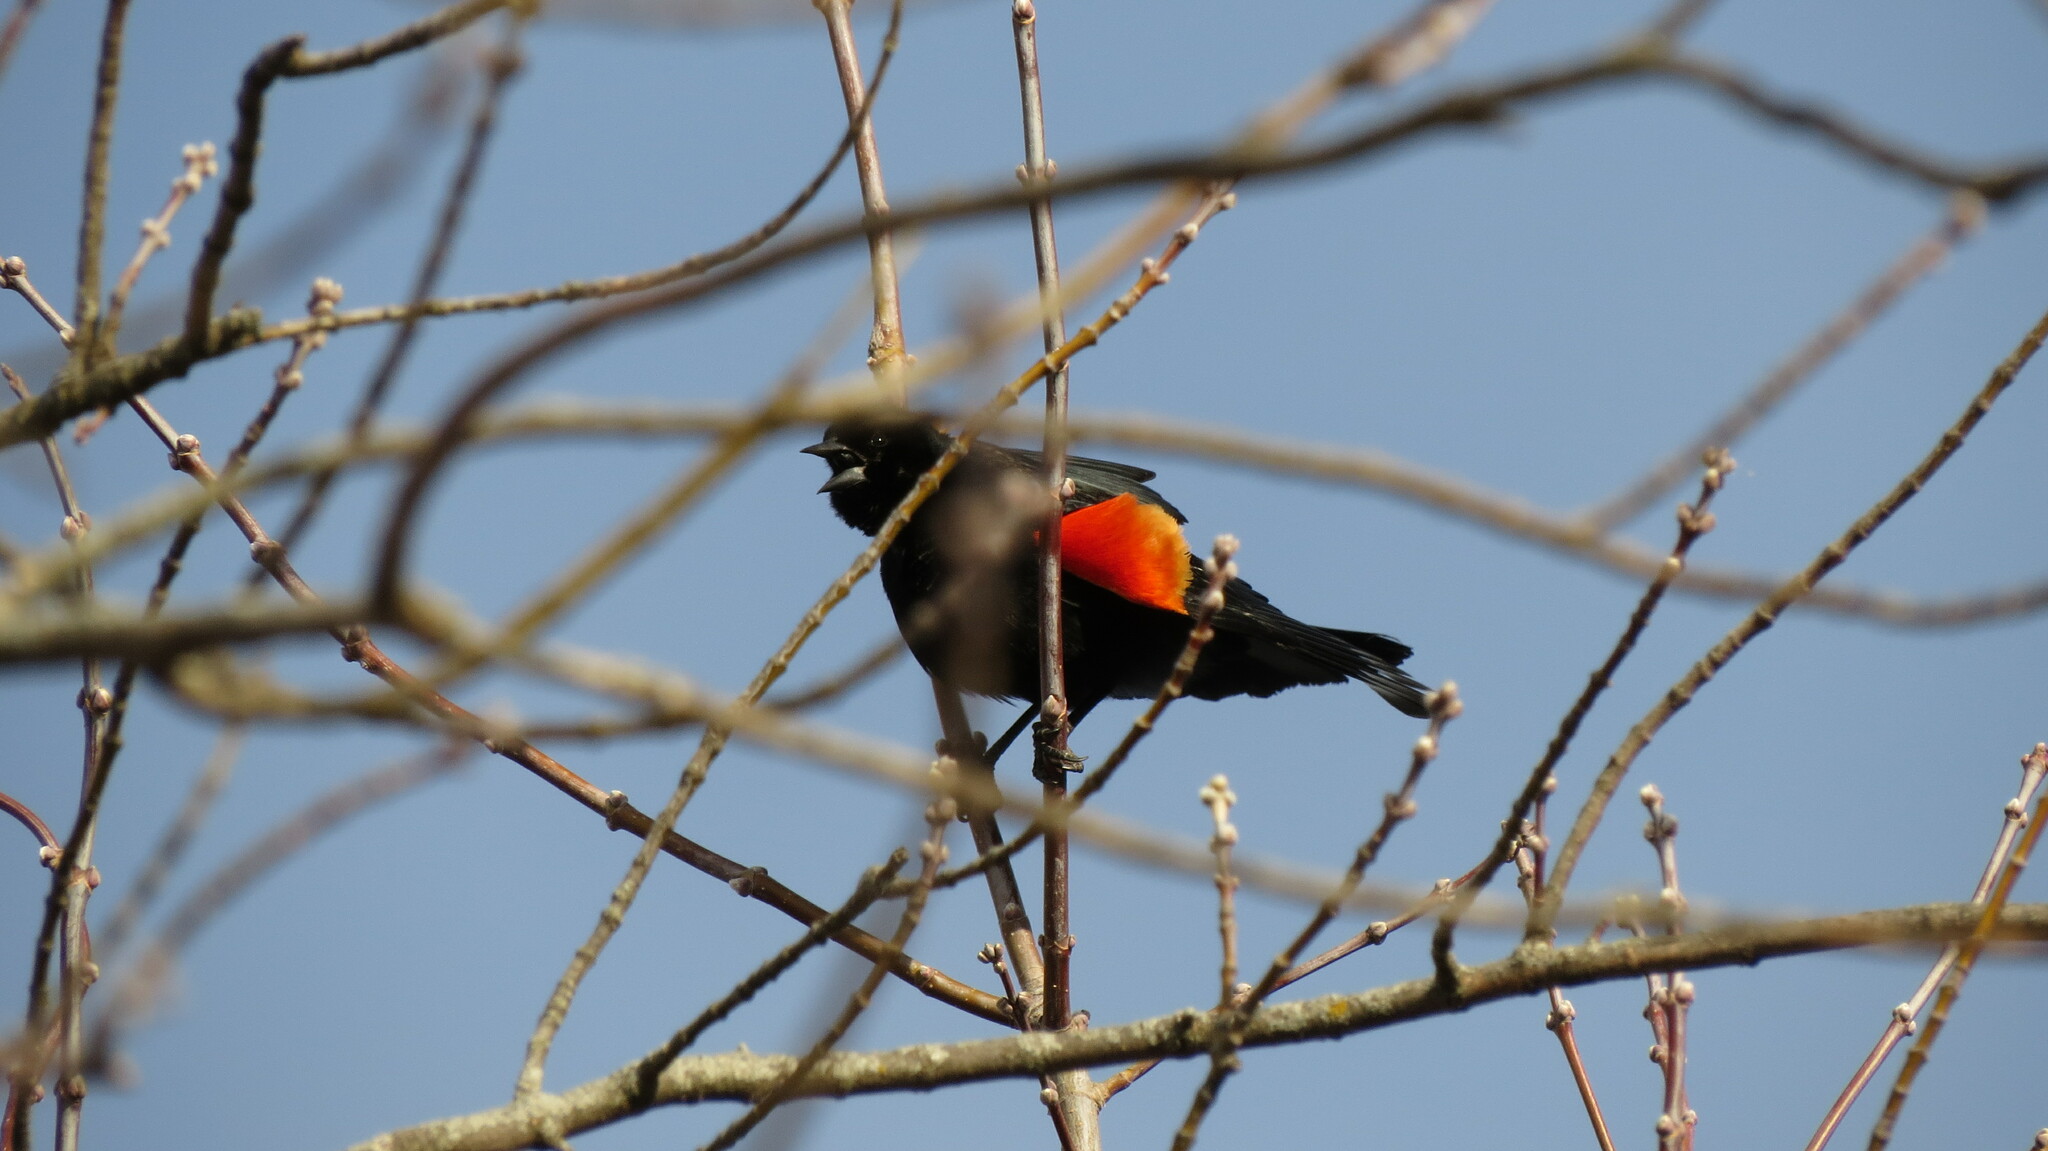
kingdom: Animalia
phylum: Chordata
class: Aves
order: Passeriformes
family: Icteridae
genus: Agelaius
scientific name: Agelaius phoeniceus
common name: Red-winged blackbird
